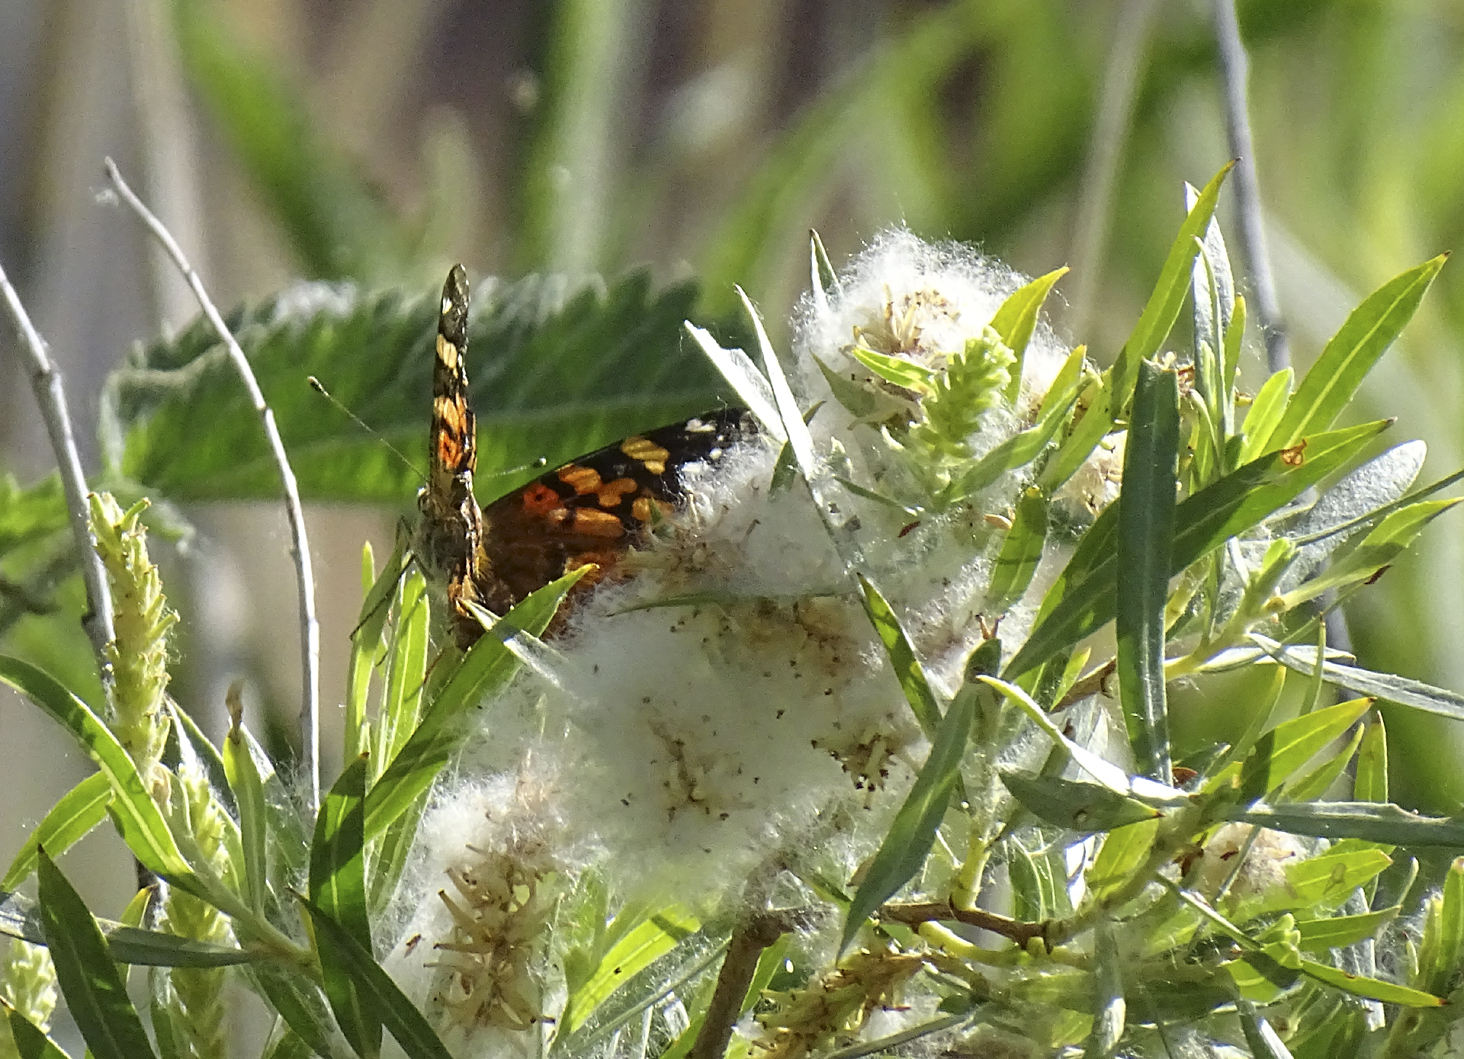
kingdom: Animalia
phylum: Arthropoda
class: Insecta
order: Lepidoptera
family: Nymphalidae
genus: Vanessa
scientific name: Vanessa atalanta
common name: Red admiral
